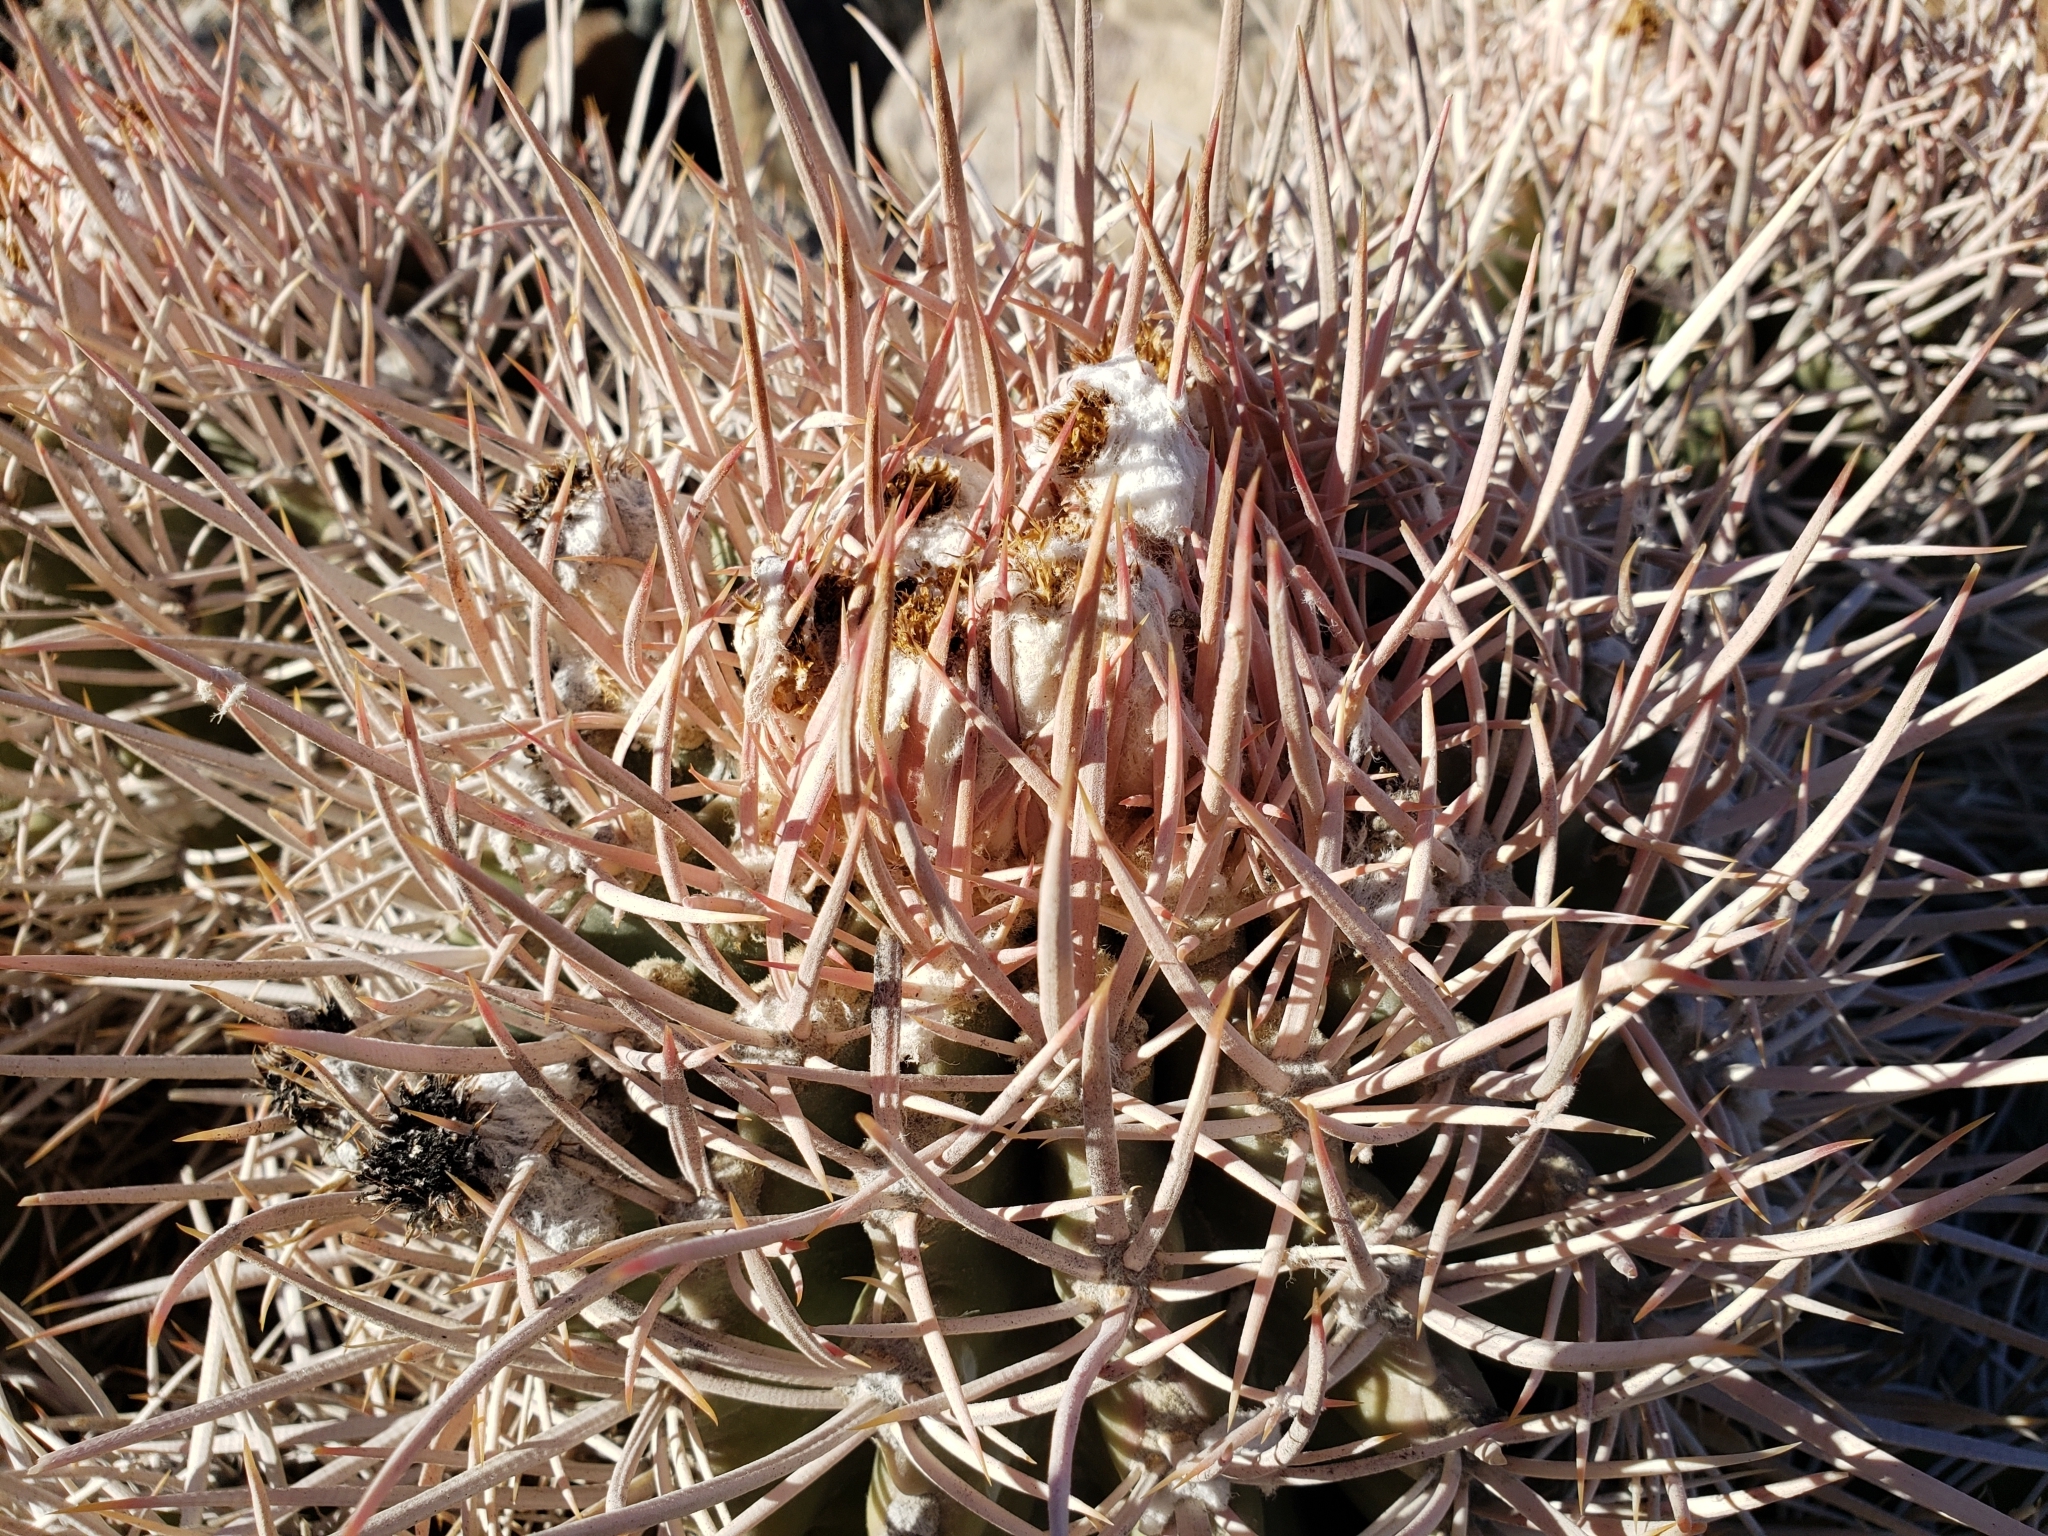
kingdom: Plantae
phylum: Tracheophyta
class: Magnoliopsida
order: Caryophyllales
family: Cactaceae
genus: Echinocactus
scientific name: Echinocactus polycephalus
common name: Cottontop cactus
